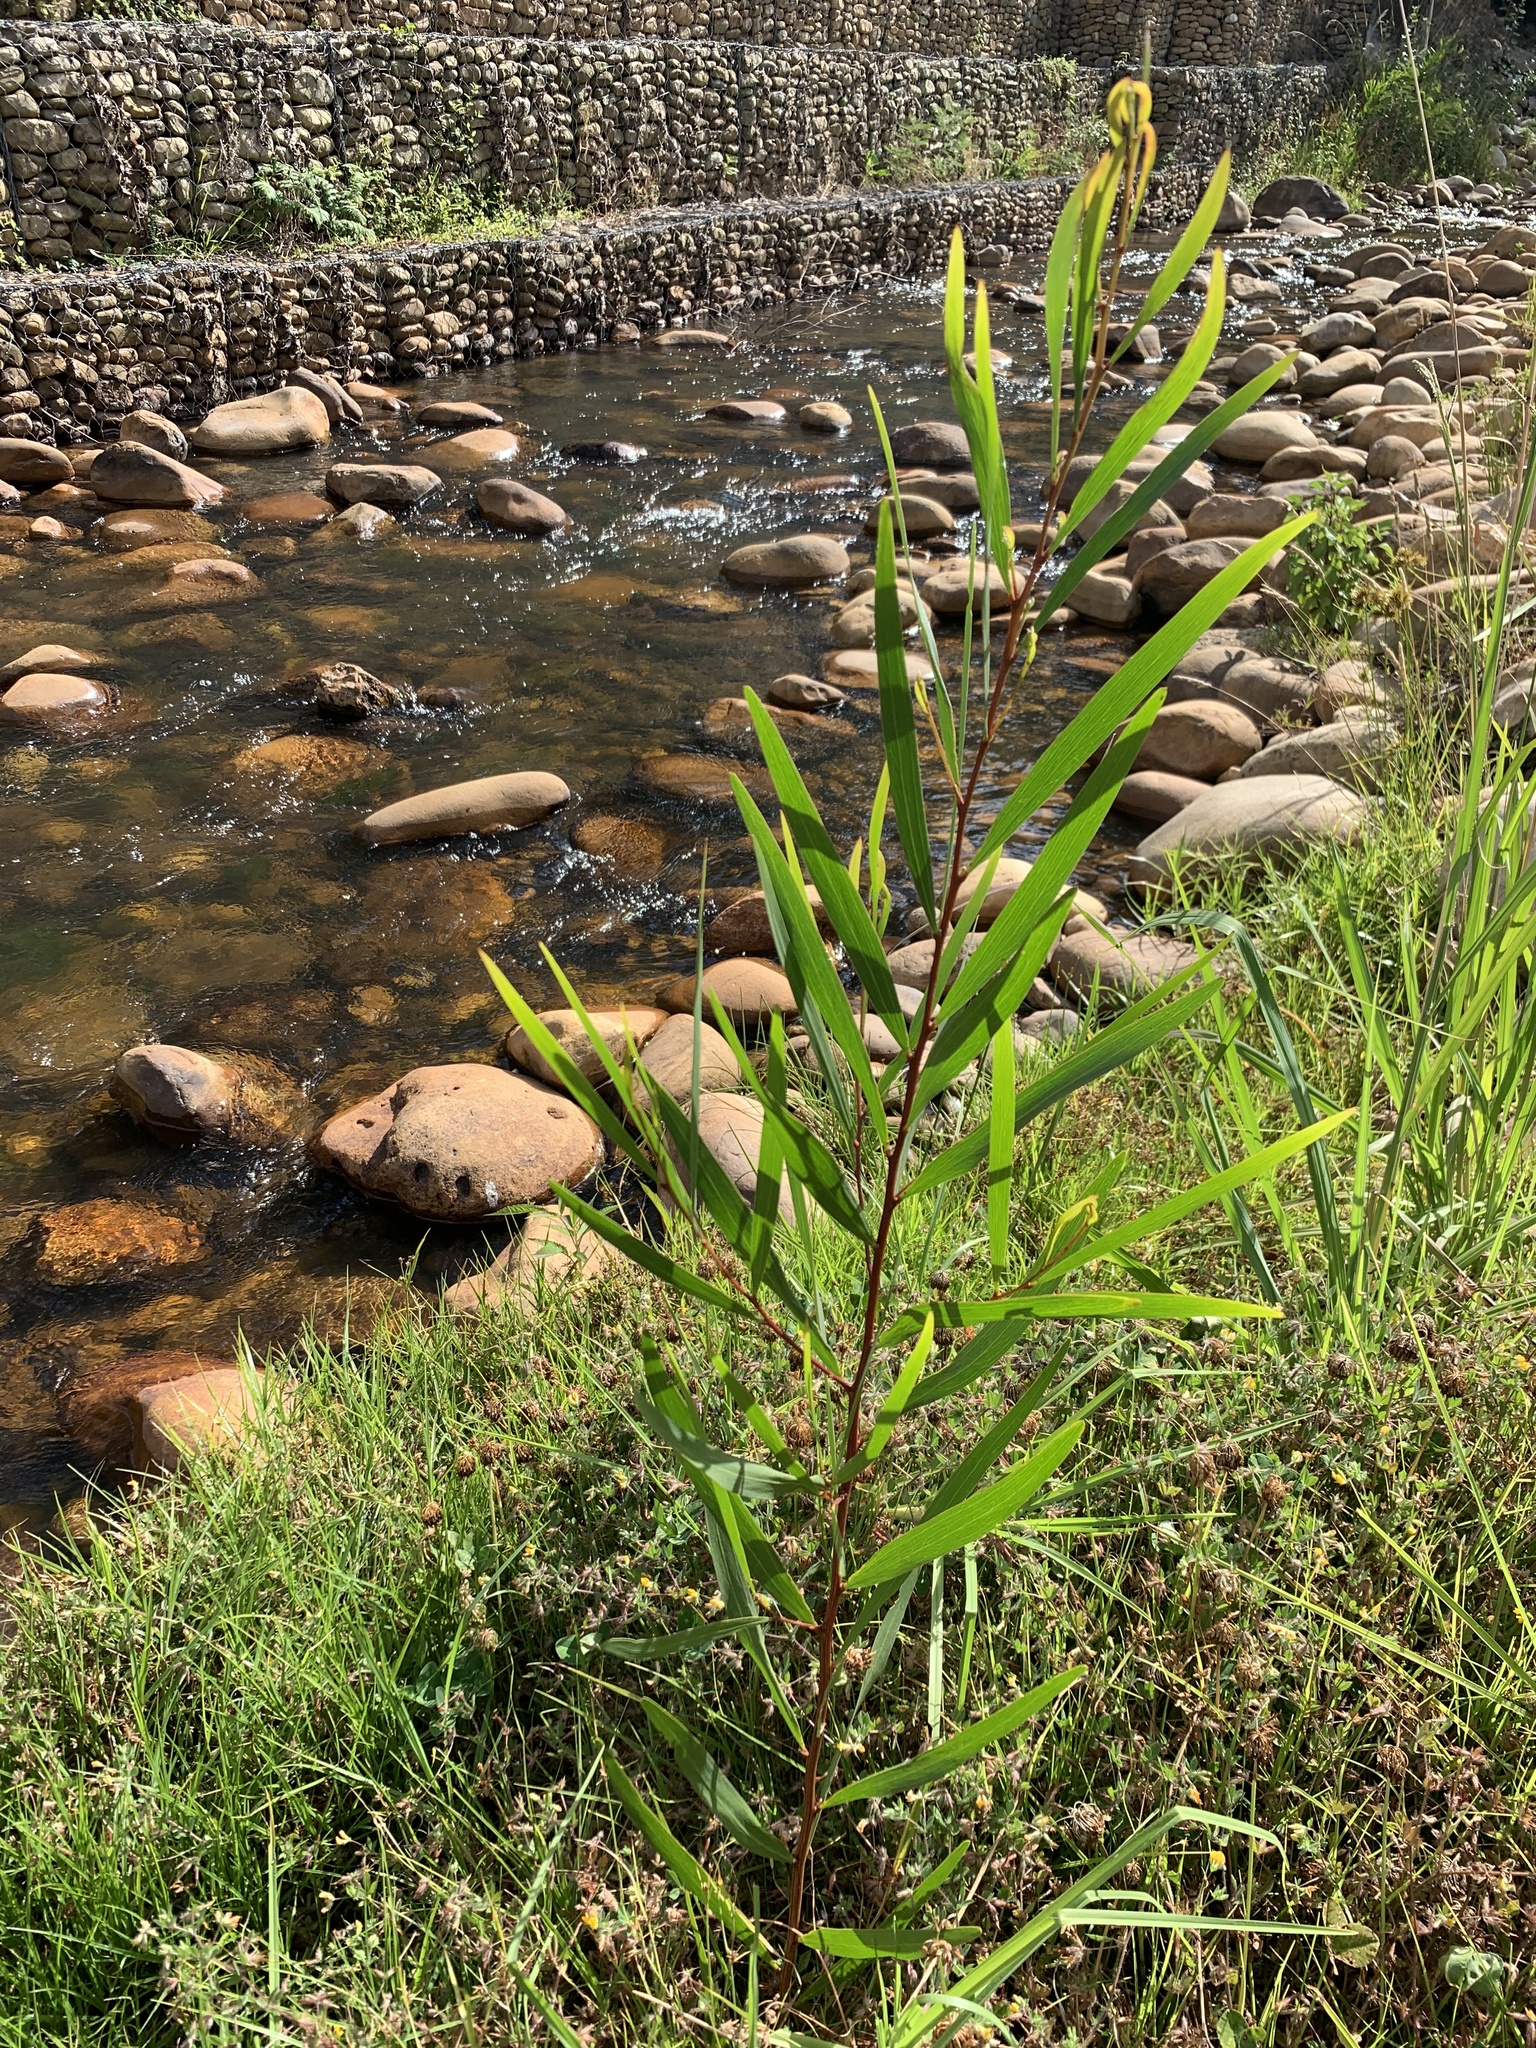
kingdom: Plantae
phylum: Tracheophyta
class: Magnoliopsida
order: Fabales
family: Fabaceae
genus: Acacia
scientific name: Acacia longifolia
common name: Sydney golden wattle
